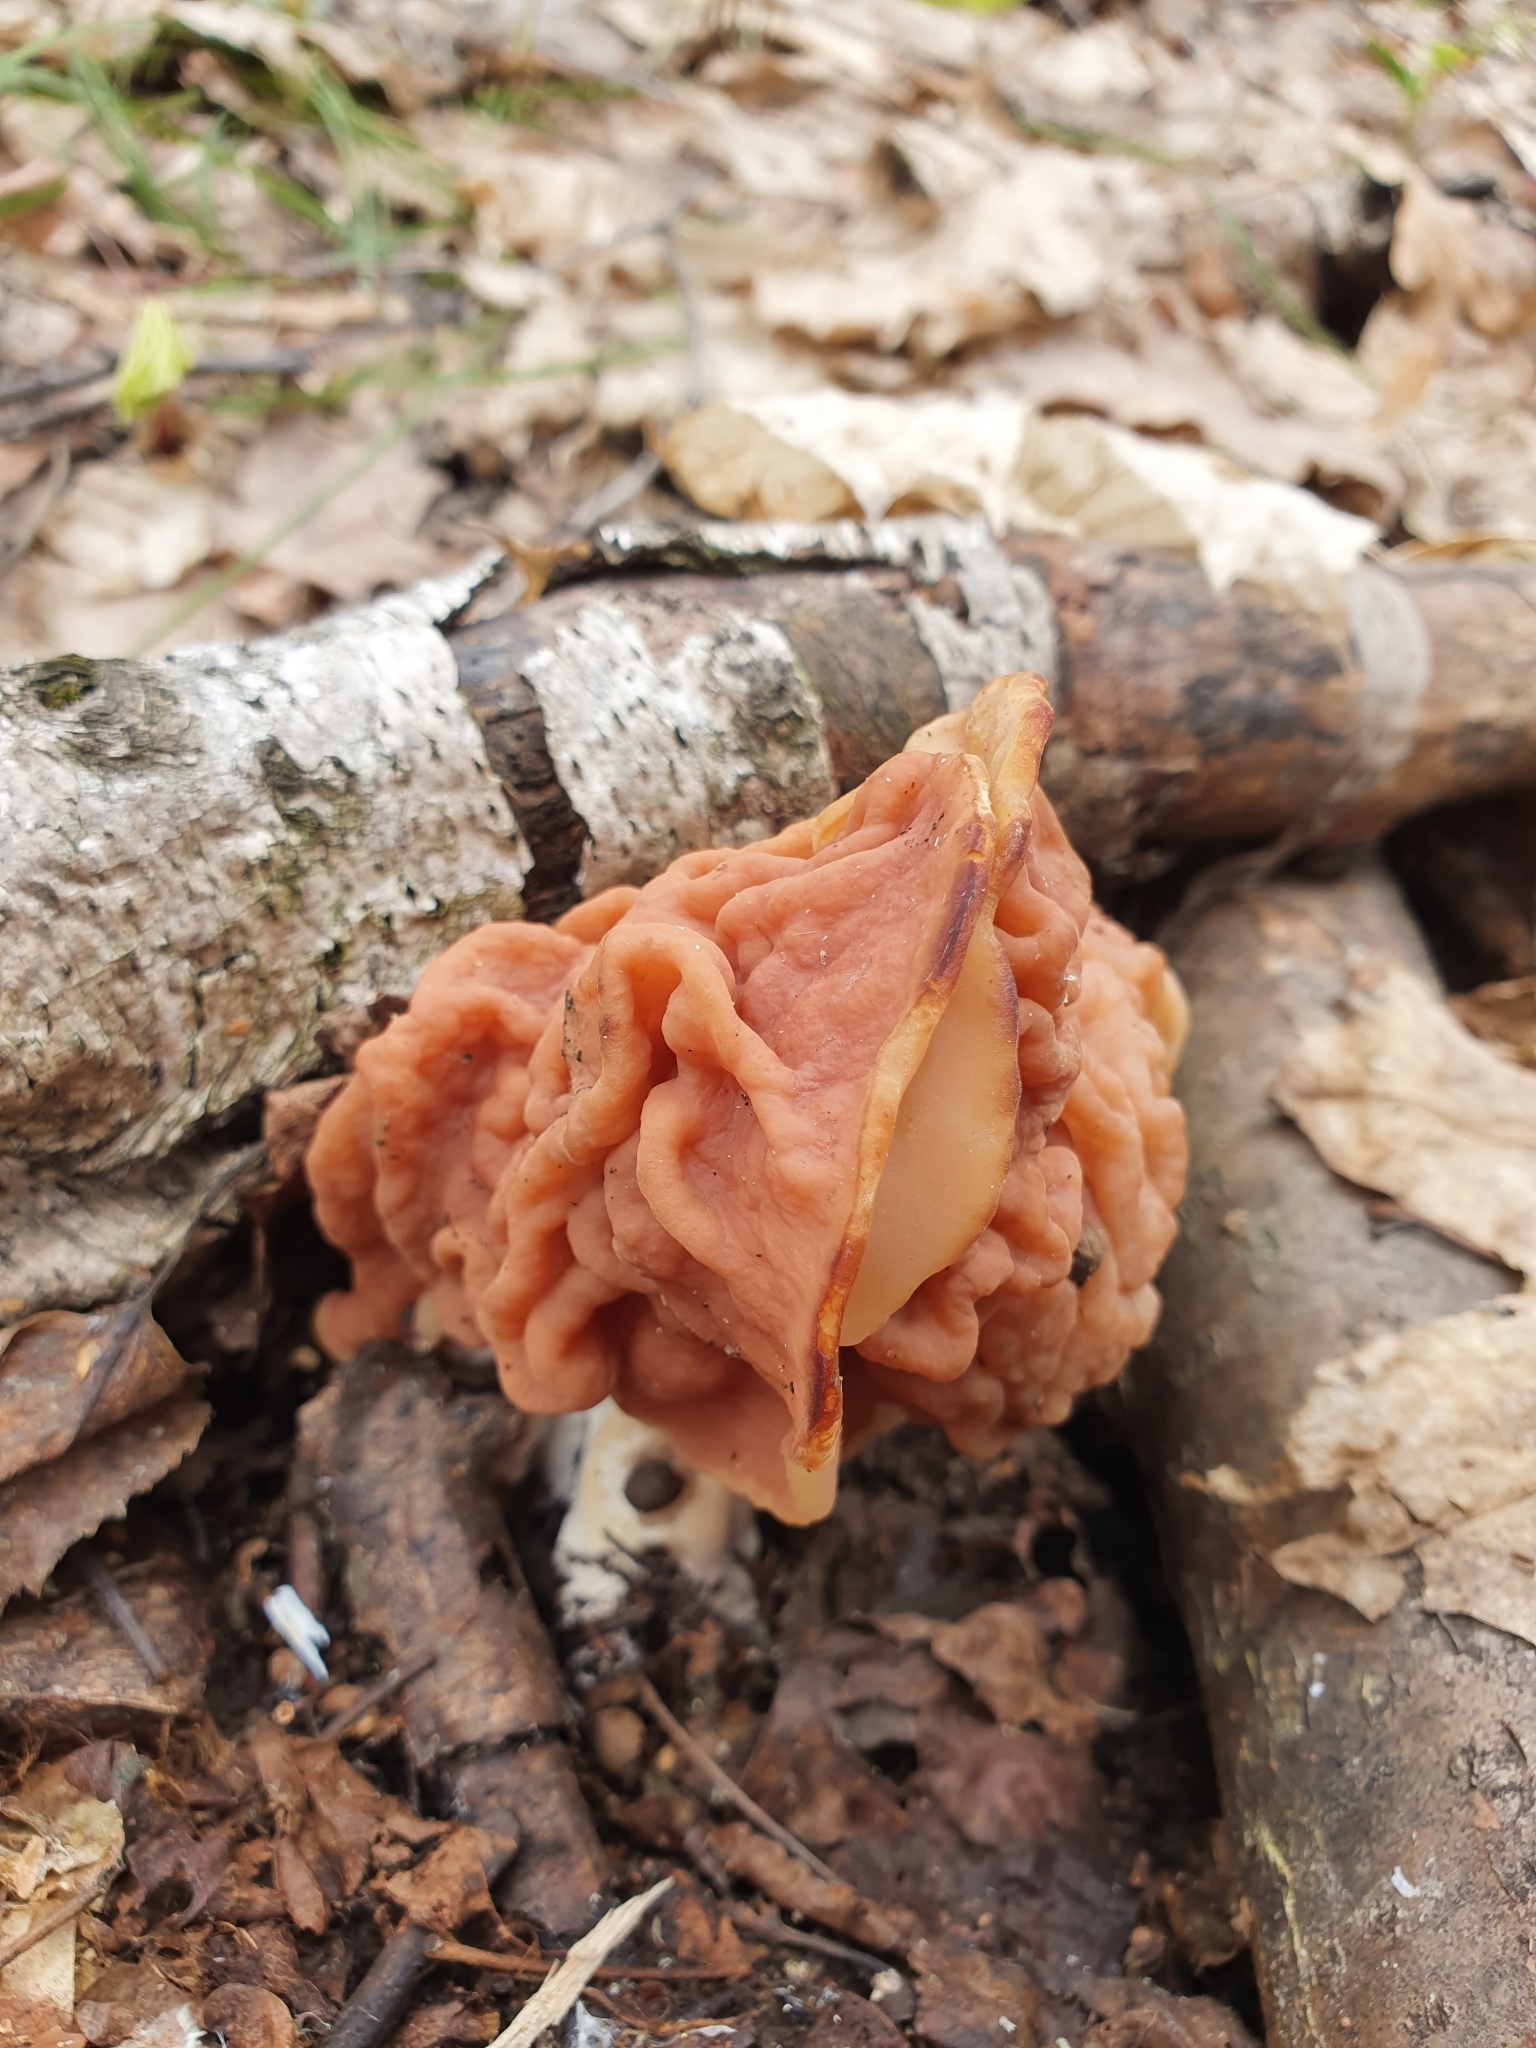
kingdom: Fungi
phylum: Ascomycota
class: Pezizomycetes
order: Pezizales
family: Discinaceae
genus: Discina
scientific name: Discina fastigiata
